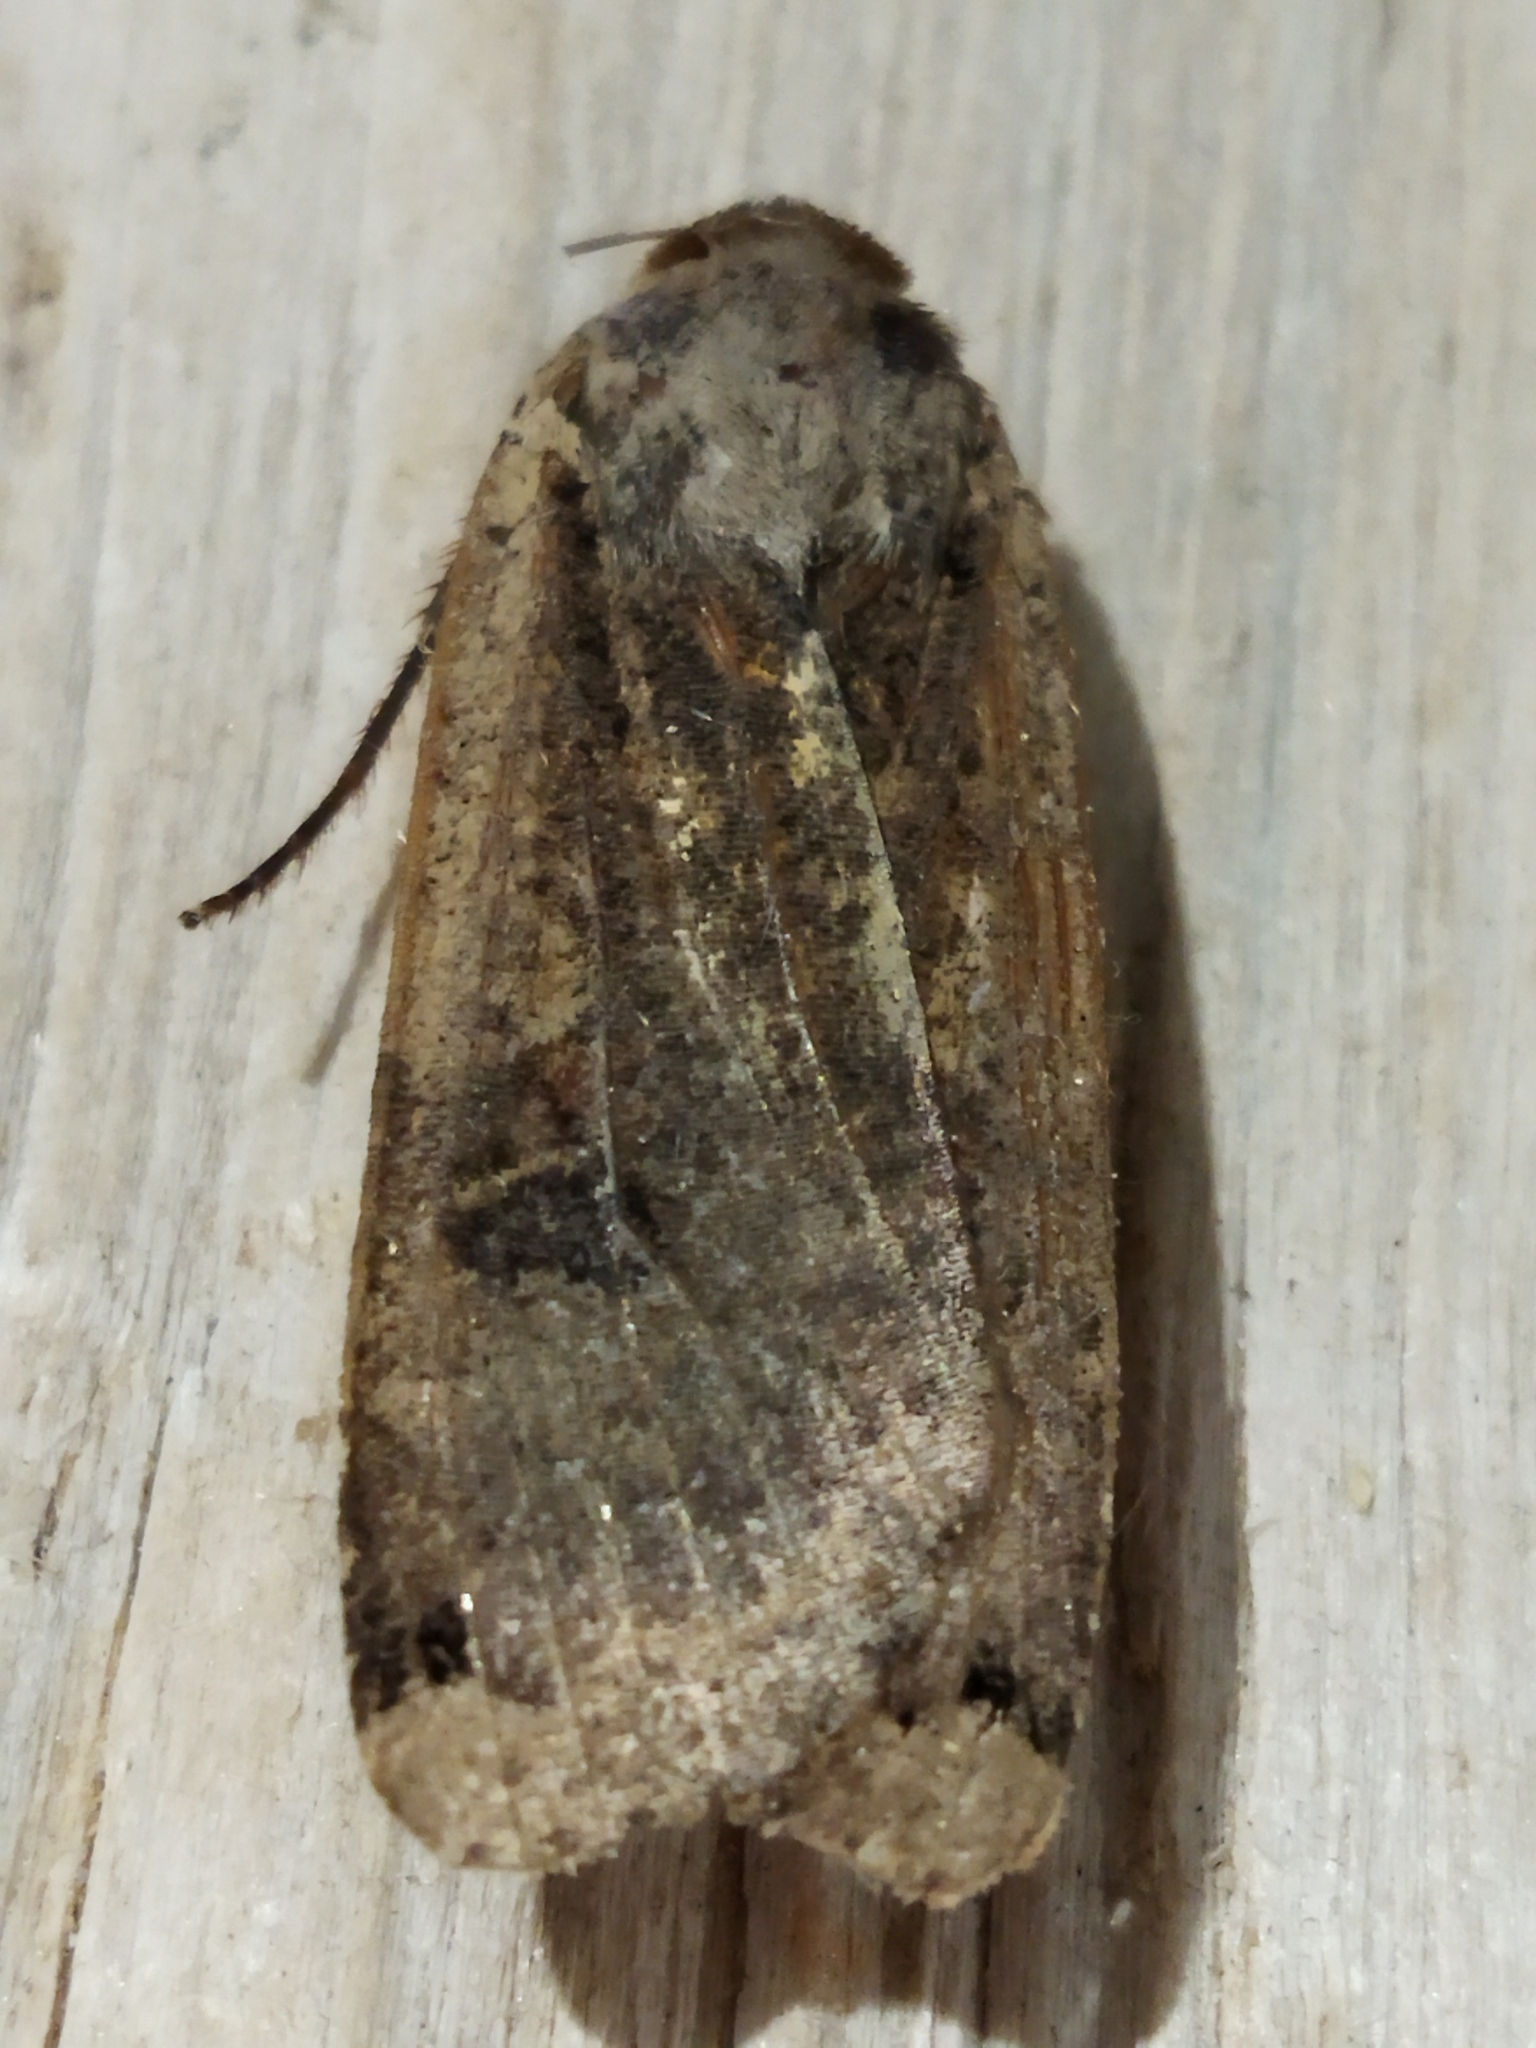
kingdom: Animalia
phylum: Arthropoda
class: Insecta
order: Lepidoptera
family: Noctuidae
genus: Noctua
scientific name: Noctua pronuba
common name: Large yellow underwing
